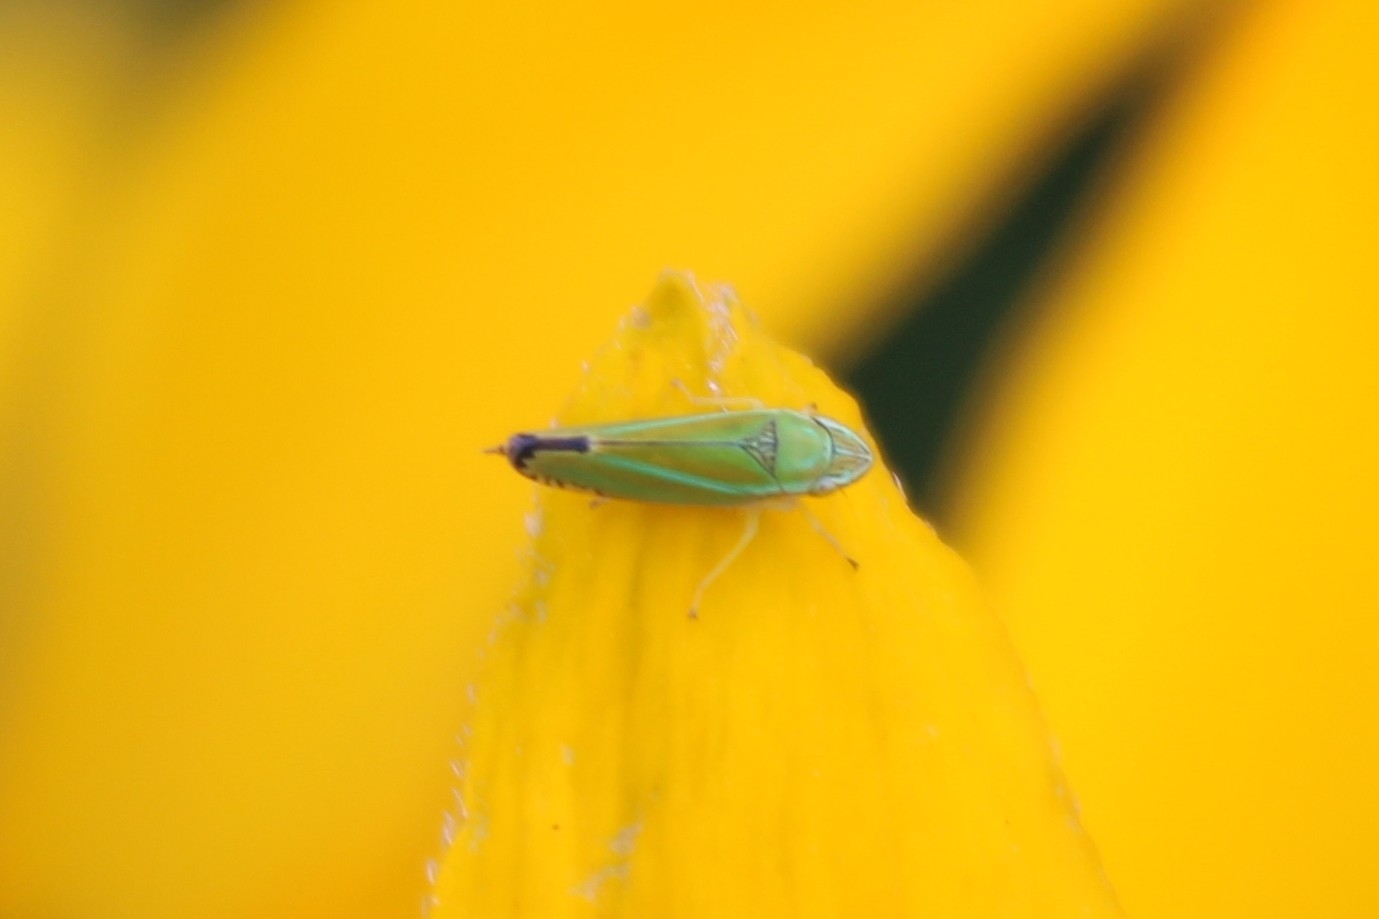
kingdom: Animalia
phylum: Arthropoda
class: Insecta
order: Hemiptera
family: Cicadellidae
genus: Graphocephala
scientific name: Graphocephala versuta
